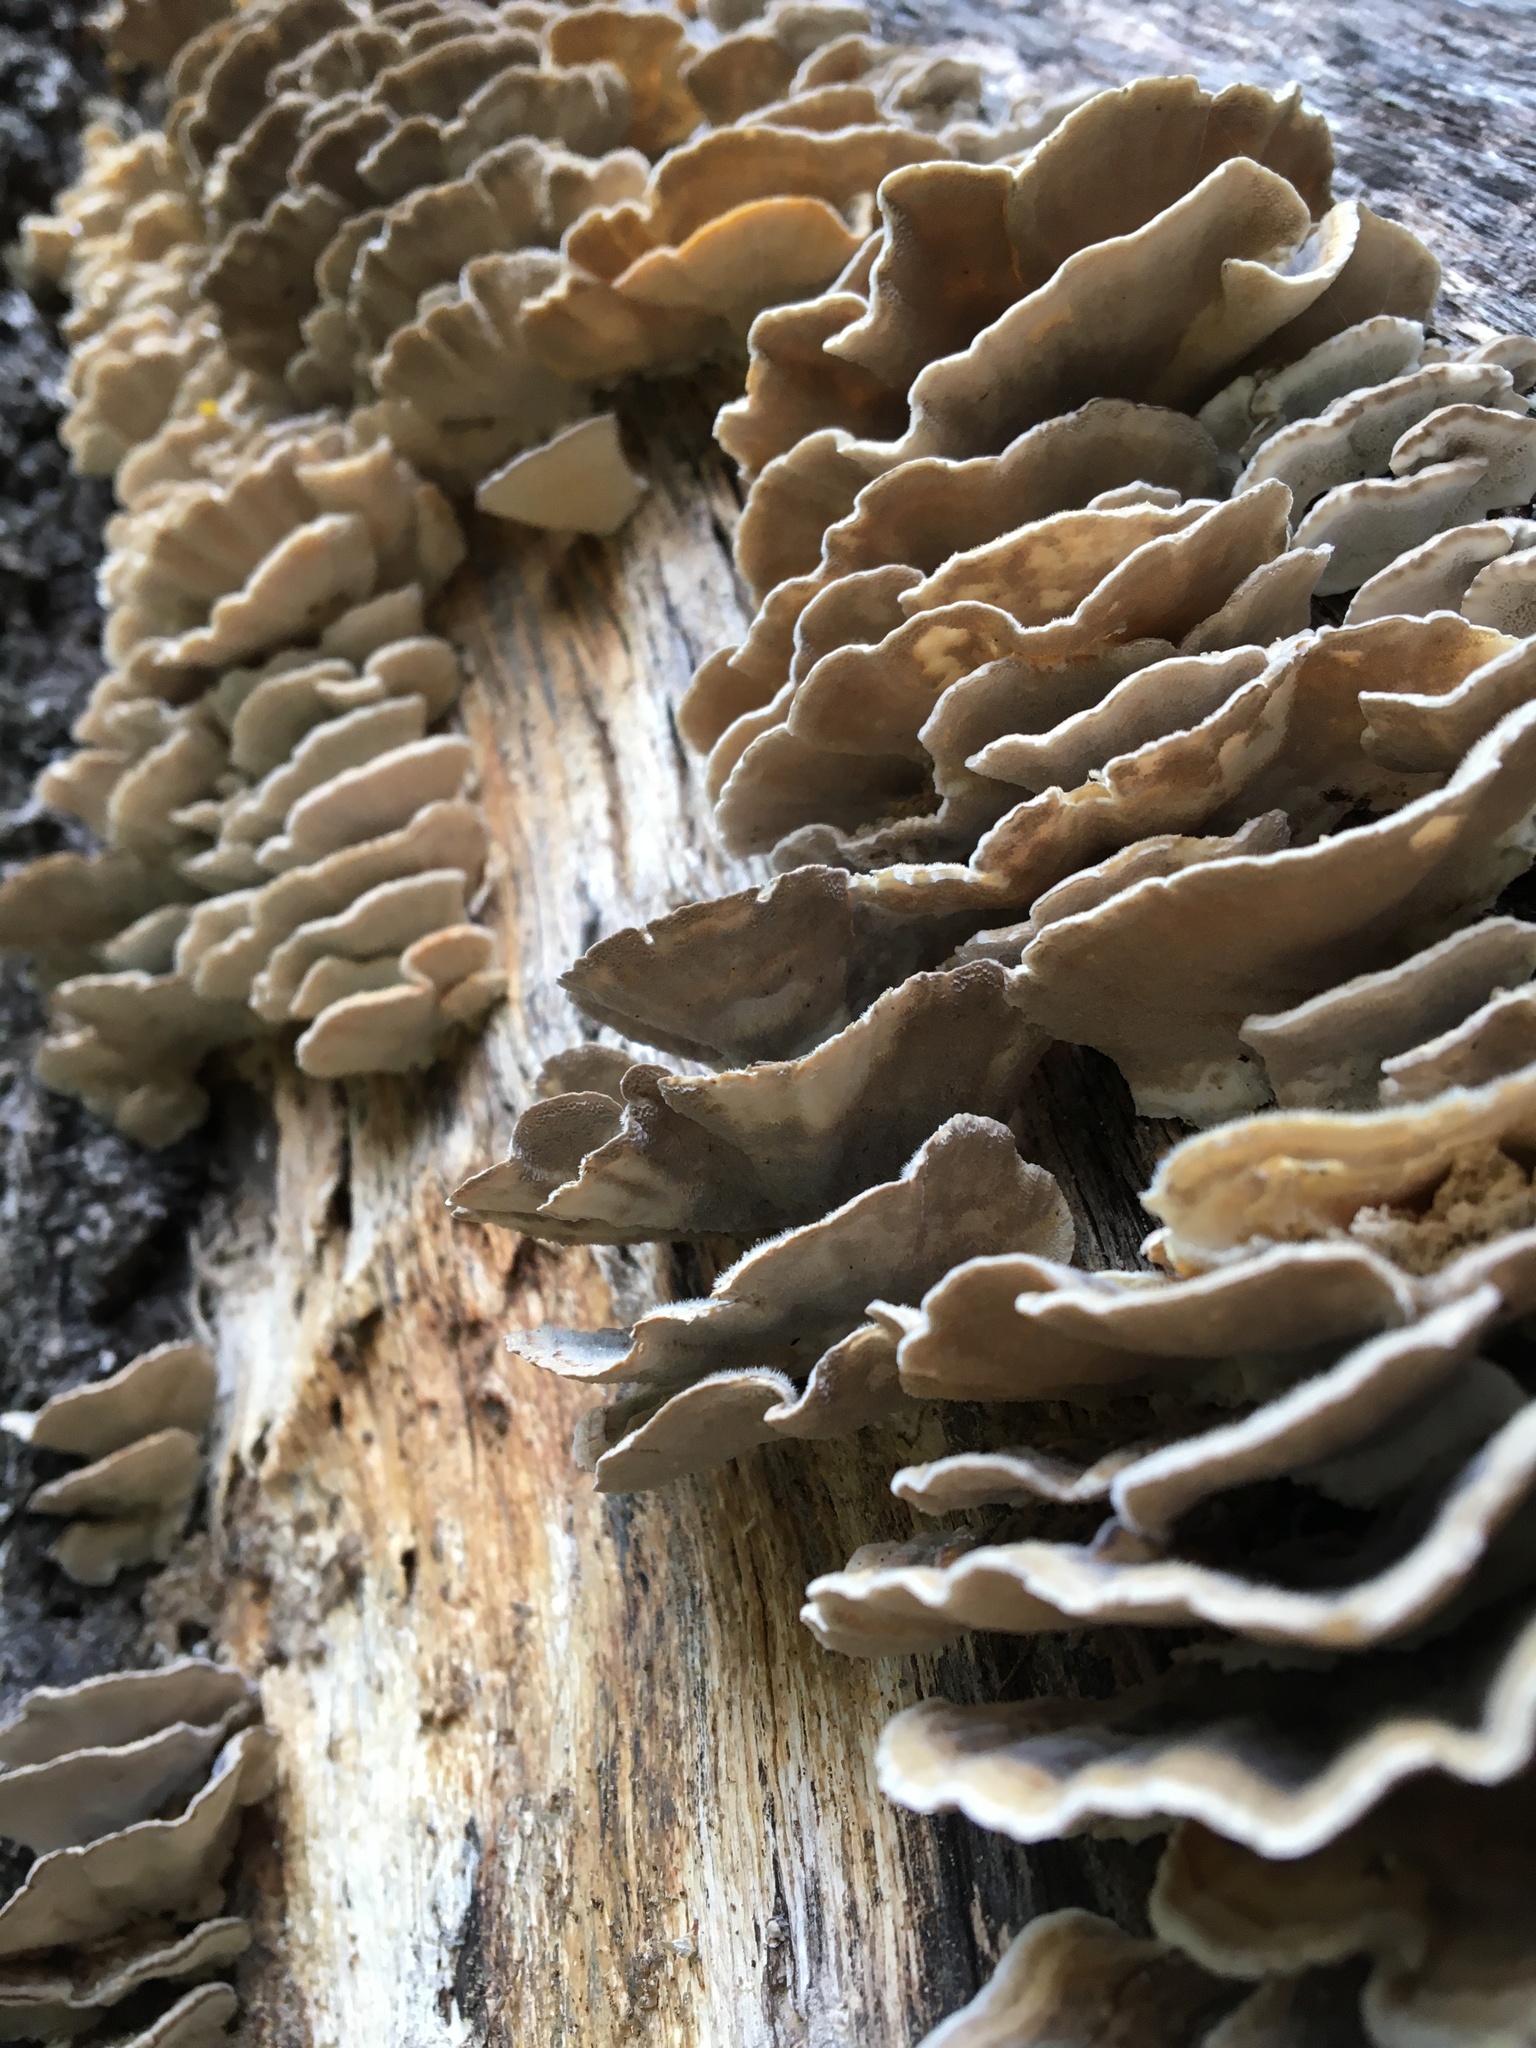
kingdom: Fungi
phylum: Basidiomycota
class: Agaricomycetes
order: Polyporales
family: Polyporaceae
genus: Trametes
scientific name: Trametes versicolor
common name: Turkeytail
